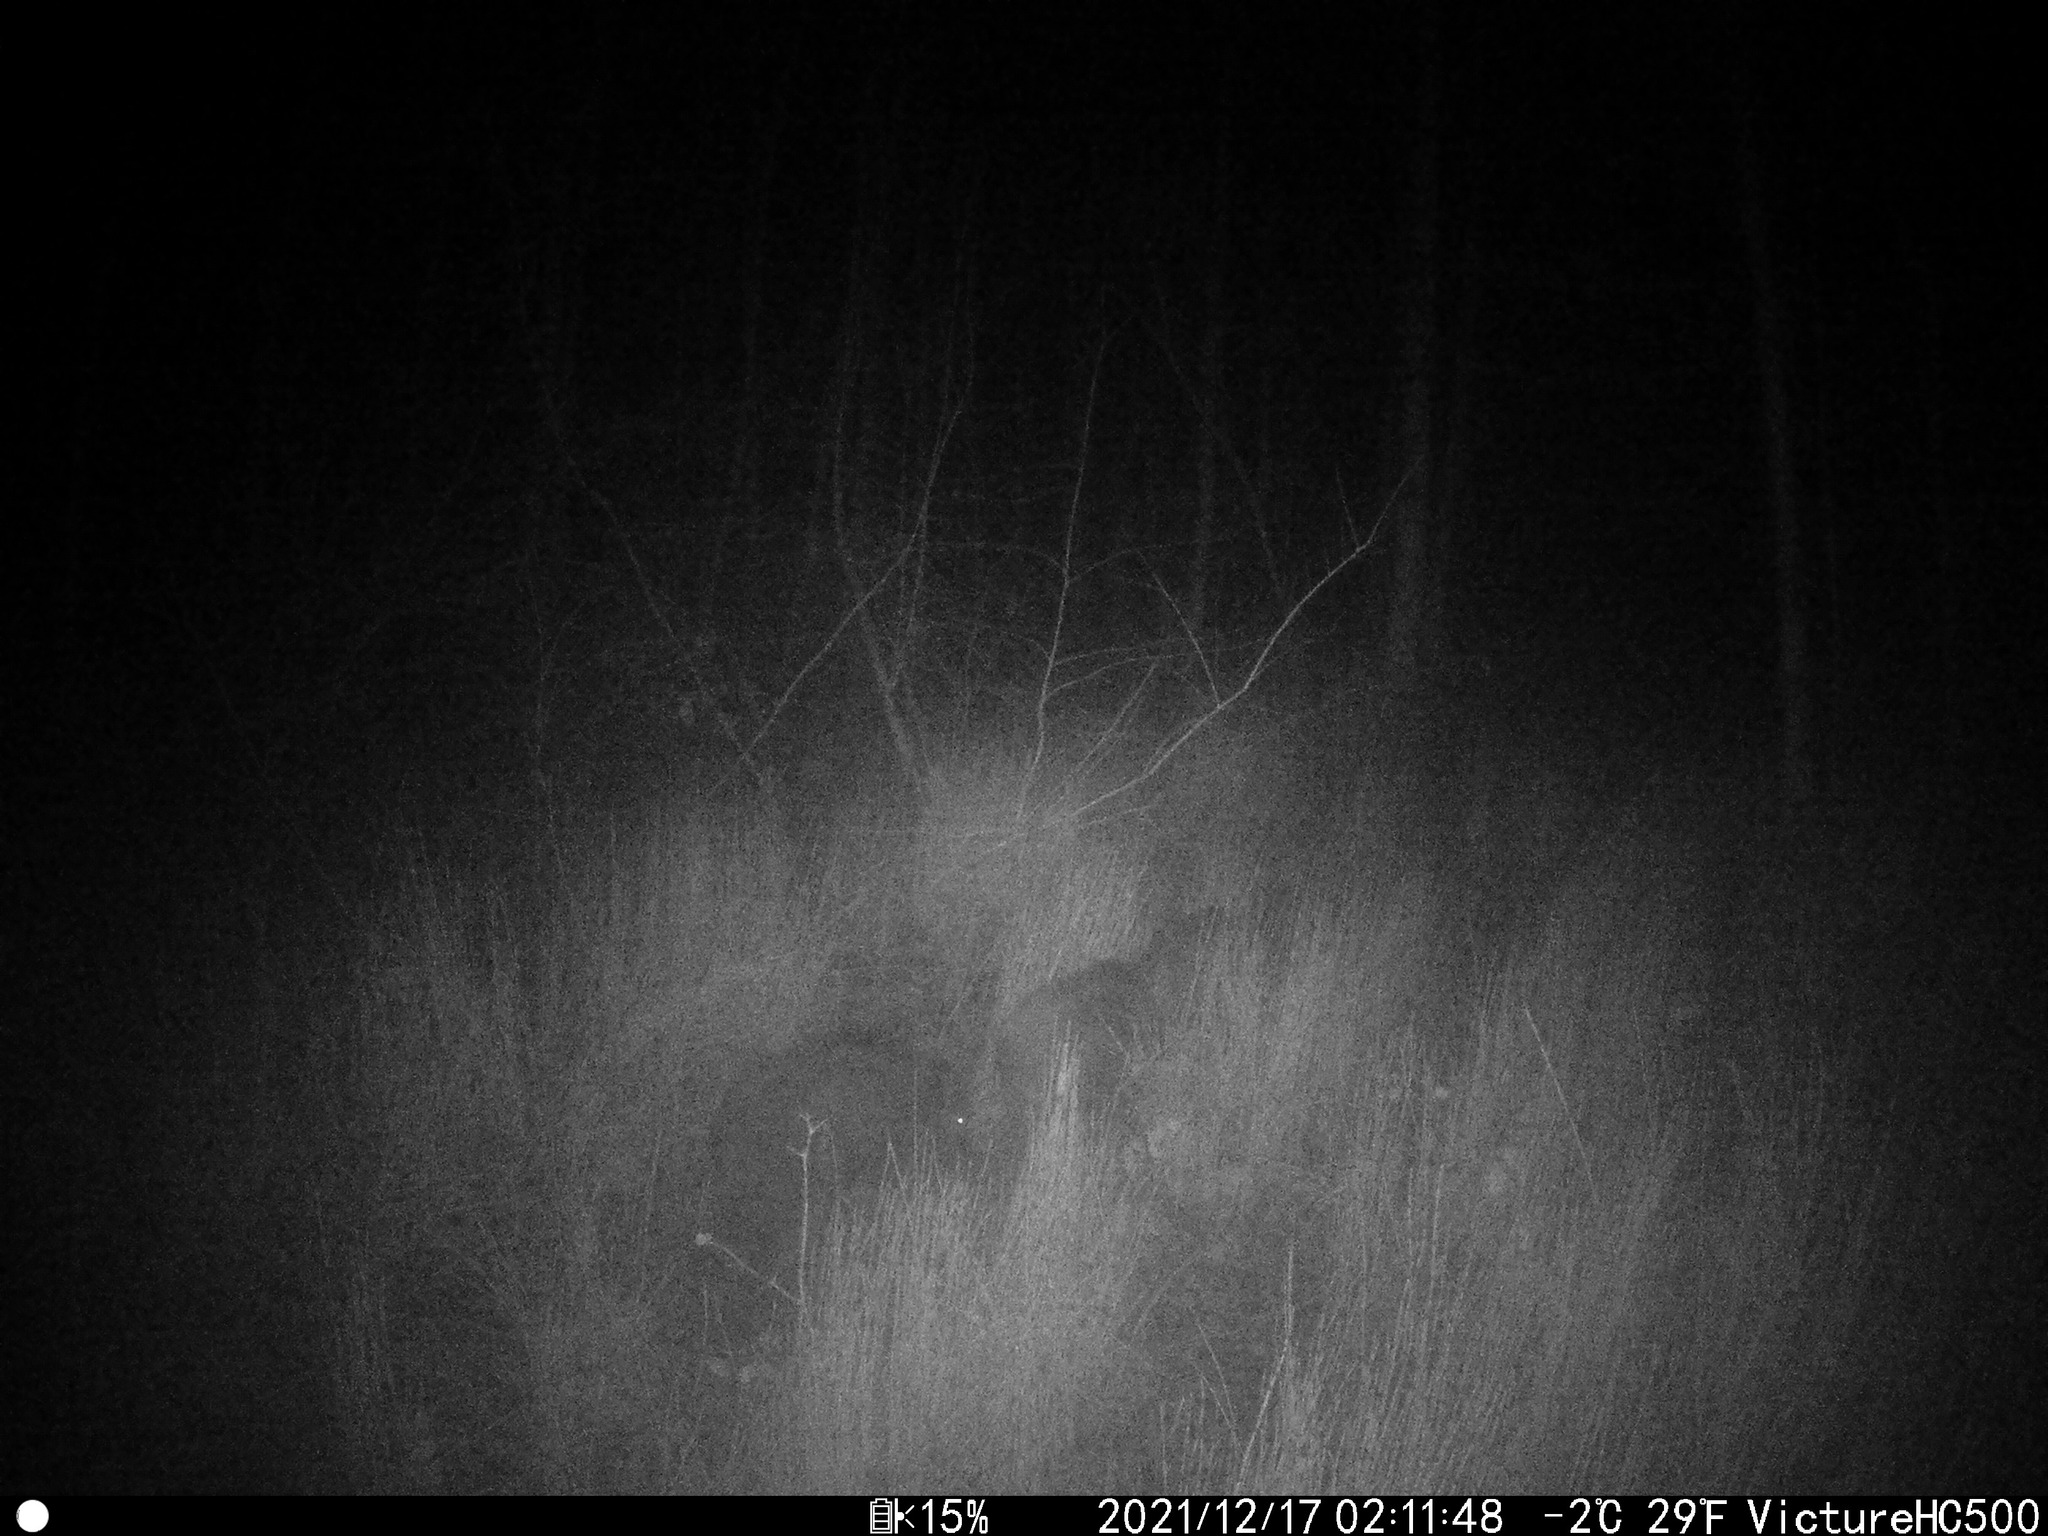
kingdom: Animalia
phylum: Chordata
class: Mammalia
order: Artiodactyla
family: Suidae
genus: Sus
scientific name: Sus scrofa
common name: Wild boar
